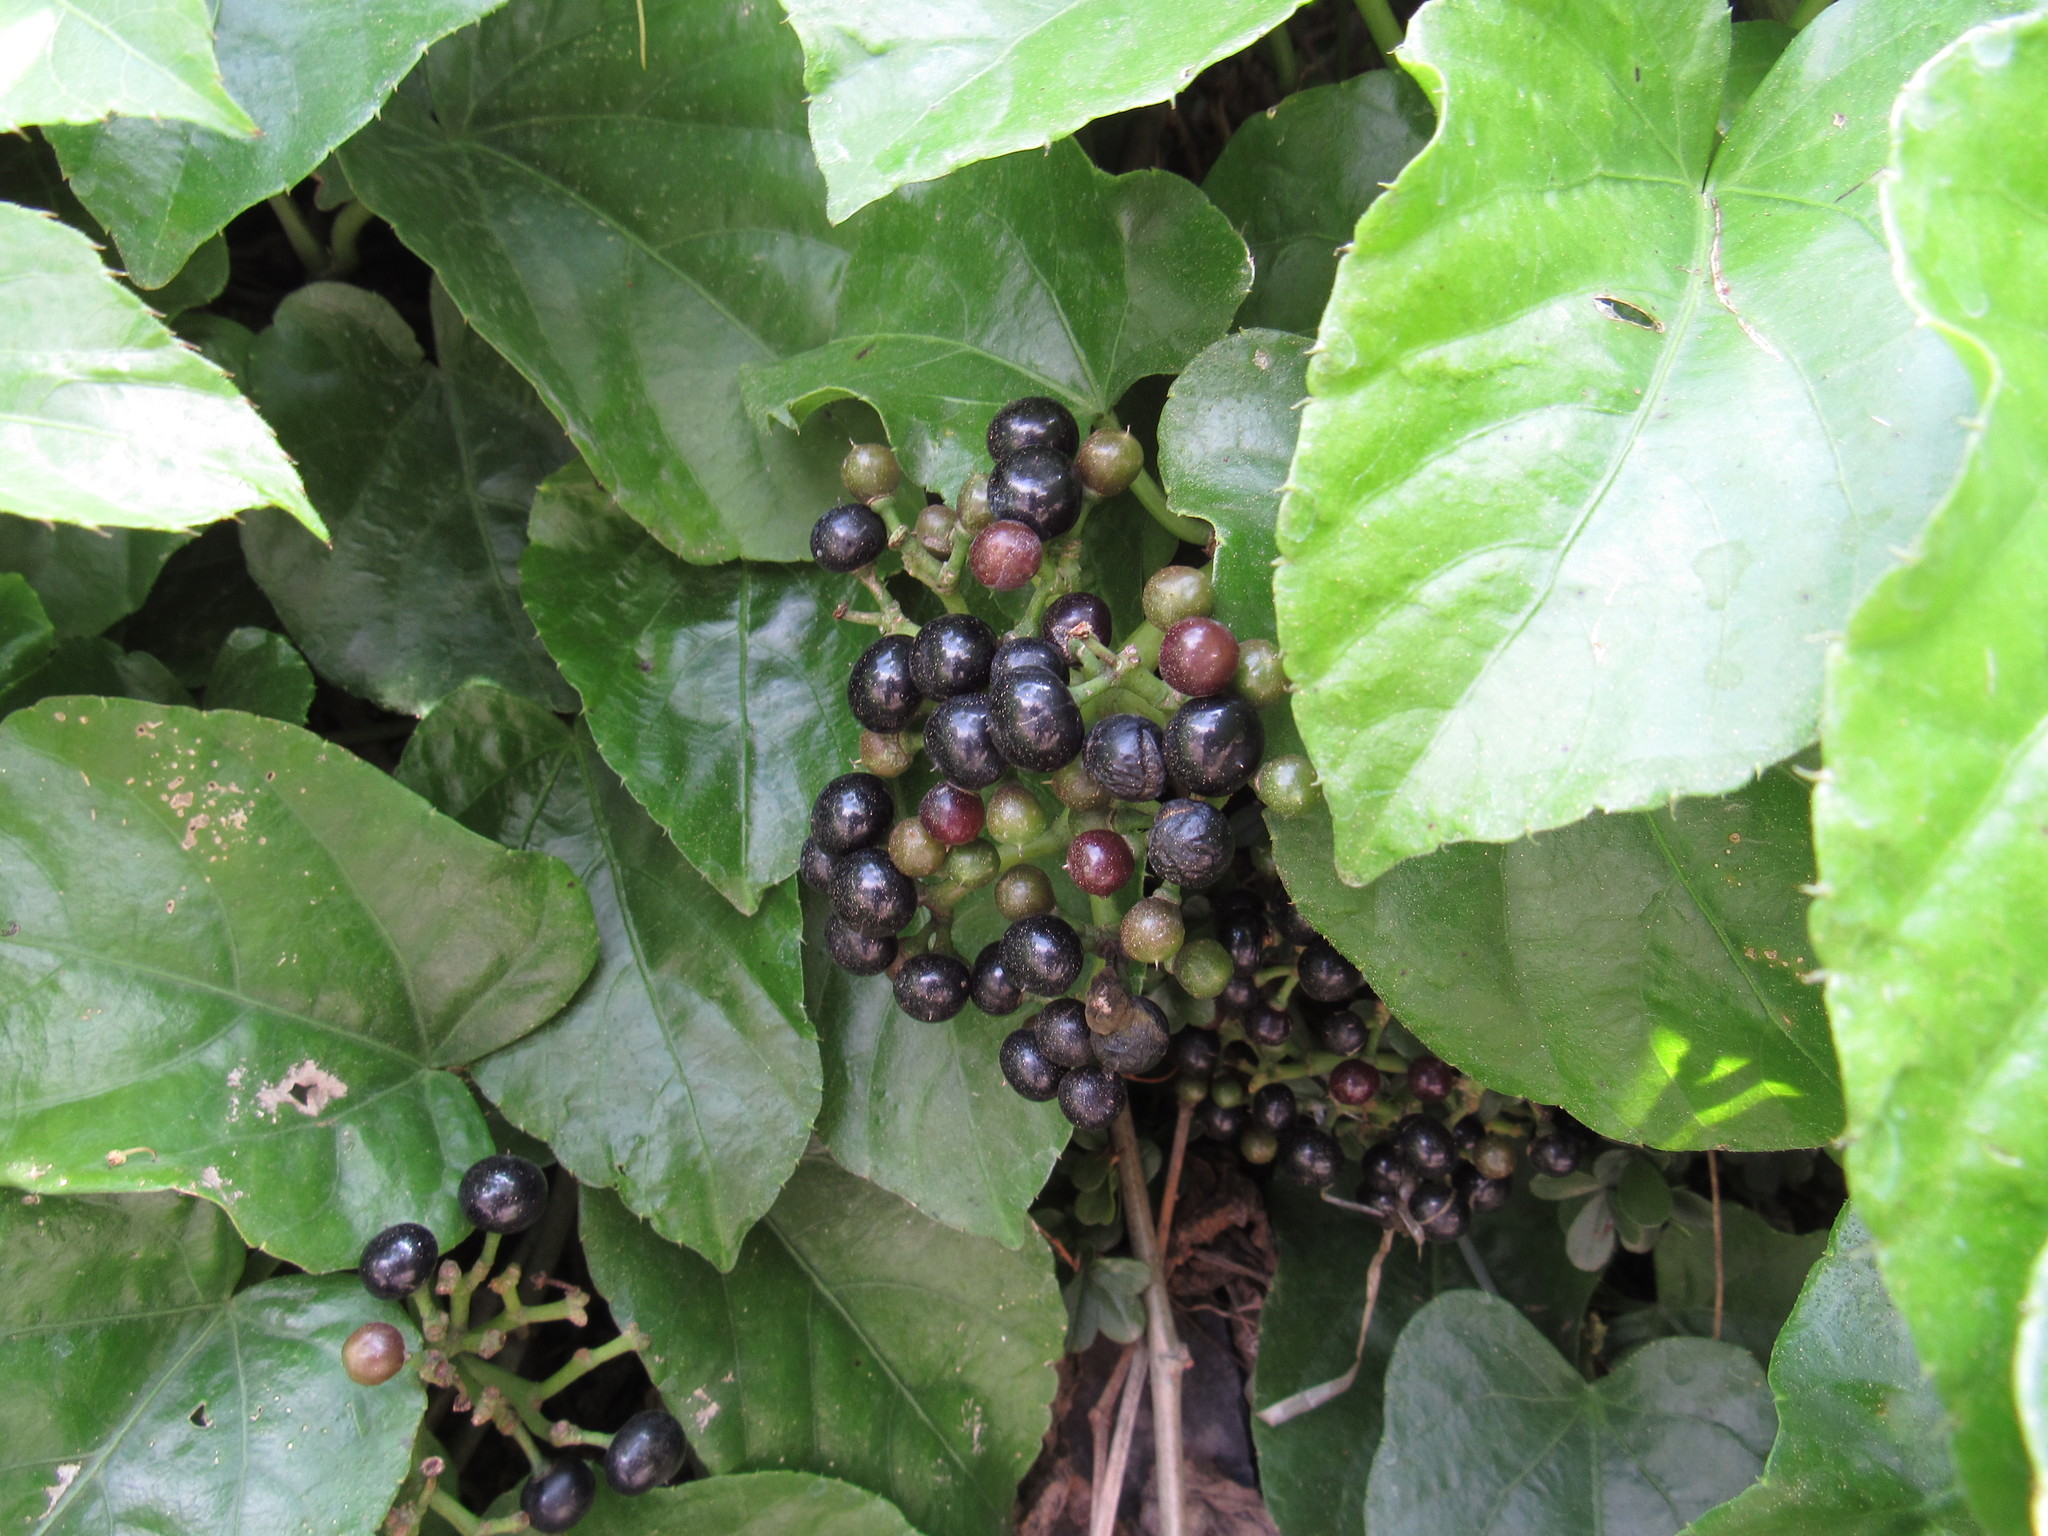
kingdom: Plantae
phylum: Tracheophyta
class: Magnoliopsida
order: Vitales
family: Vitaceae
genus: Cissus
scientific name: Cissus verticillata
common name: Princess vine
